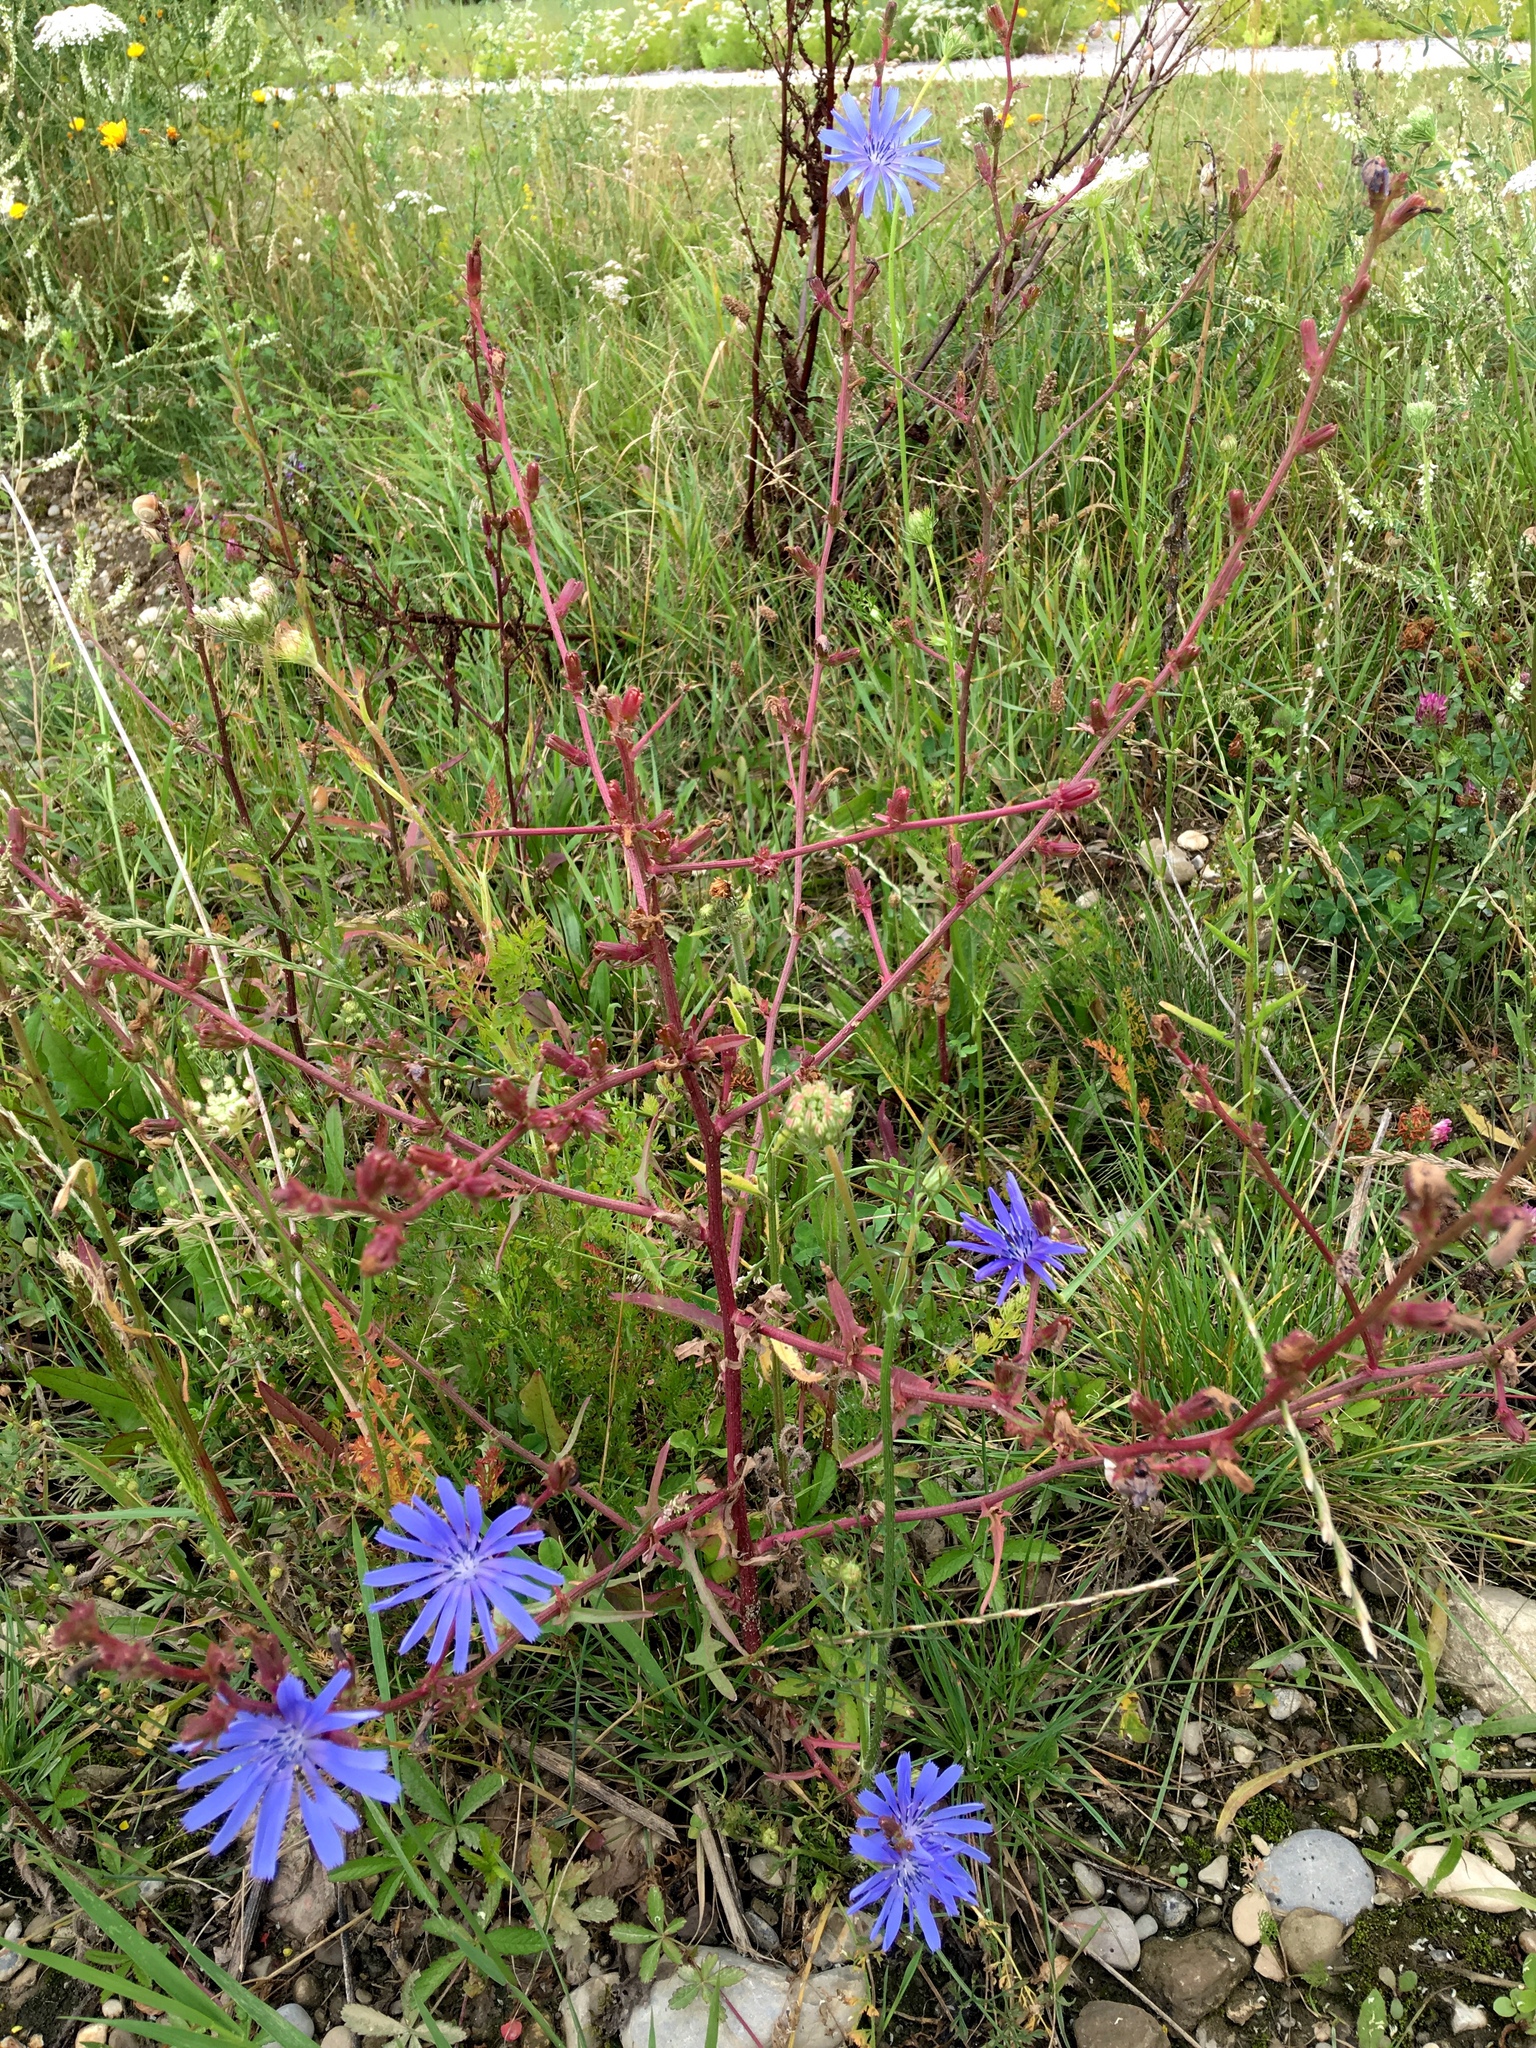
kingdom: Plantae
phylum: Tracheophyta
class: Magnoliopsida
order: Asterales
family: Asteraceae
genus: Cichorium
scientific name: Cichorium intybus
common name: Chicory
